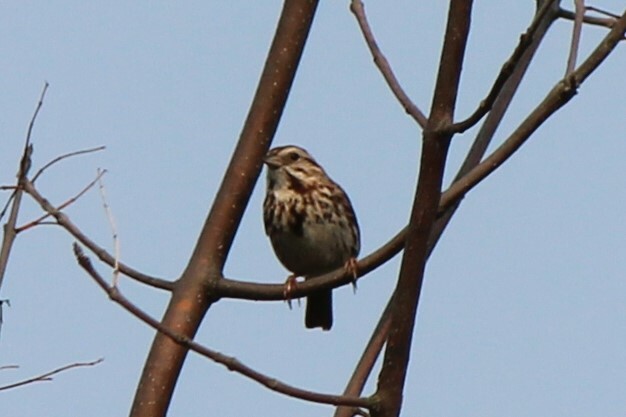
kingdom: Animalia
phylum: Chordata
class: Aves
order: Passeriformes
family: Passerellidae
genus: Melospiza
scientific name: Melospiza melodia
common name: Song sparrow
